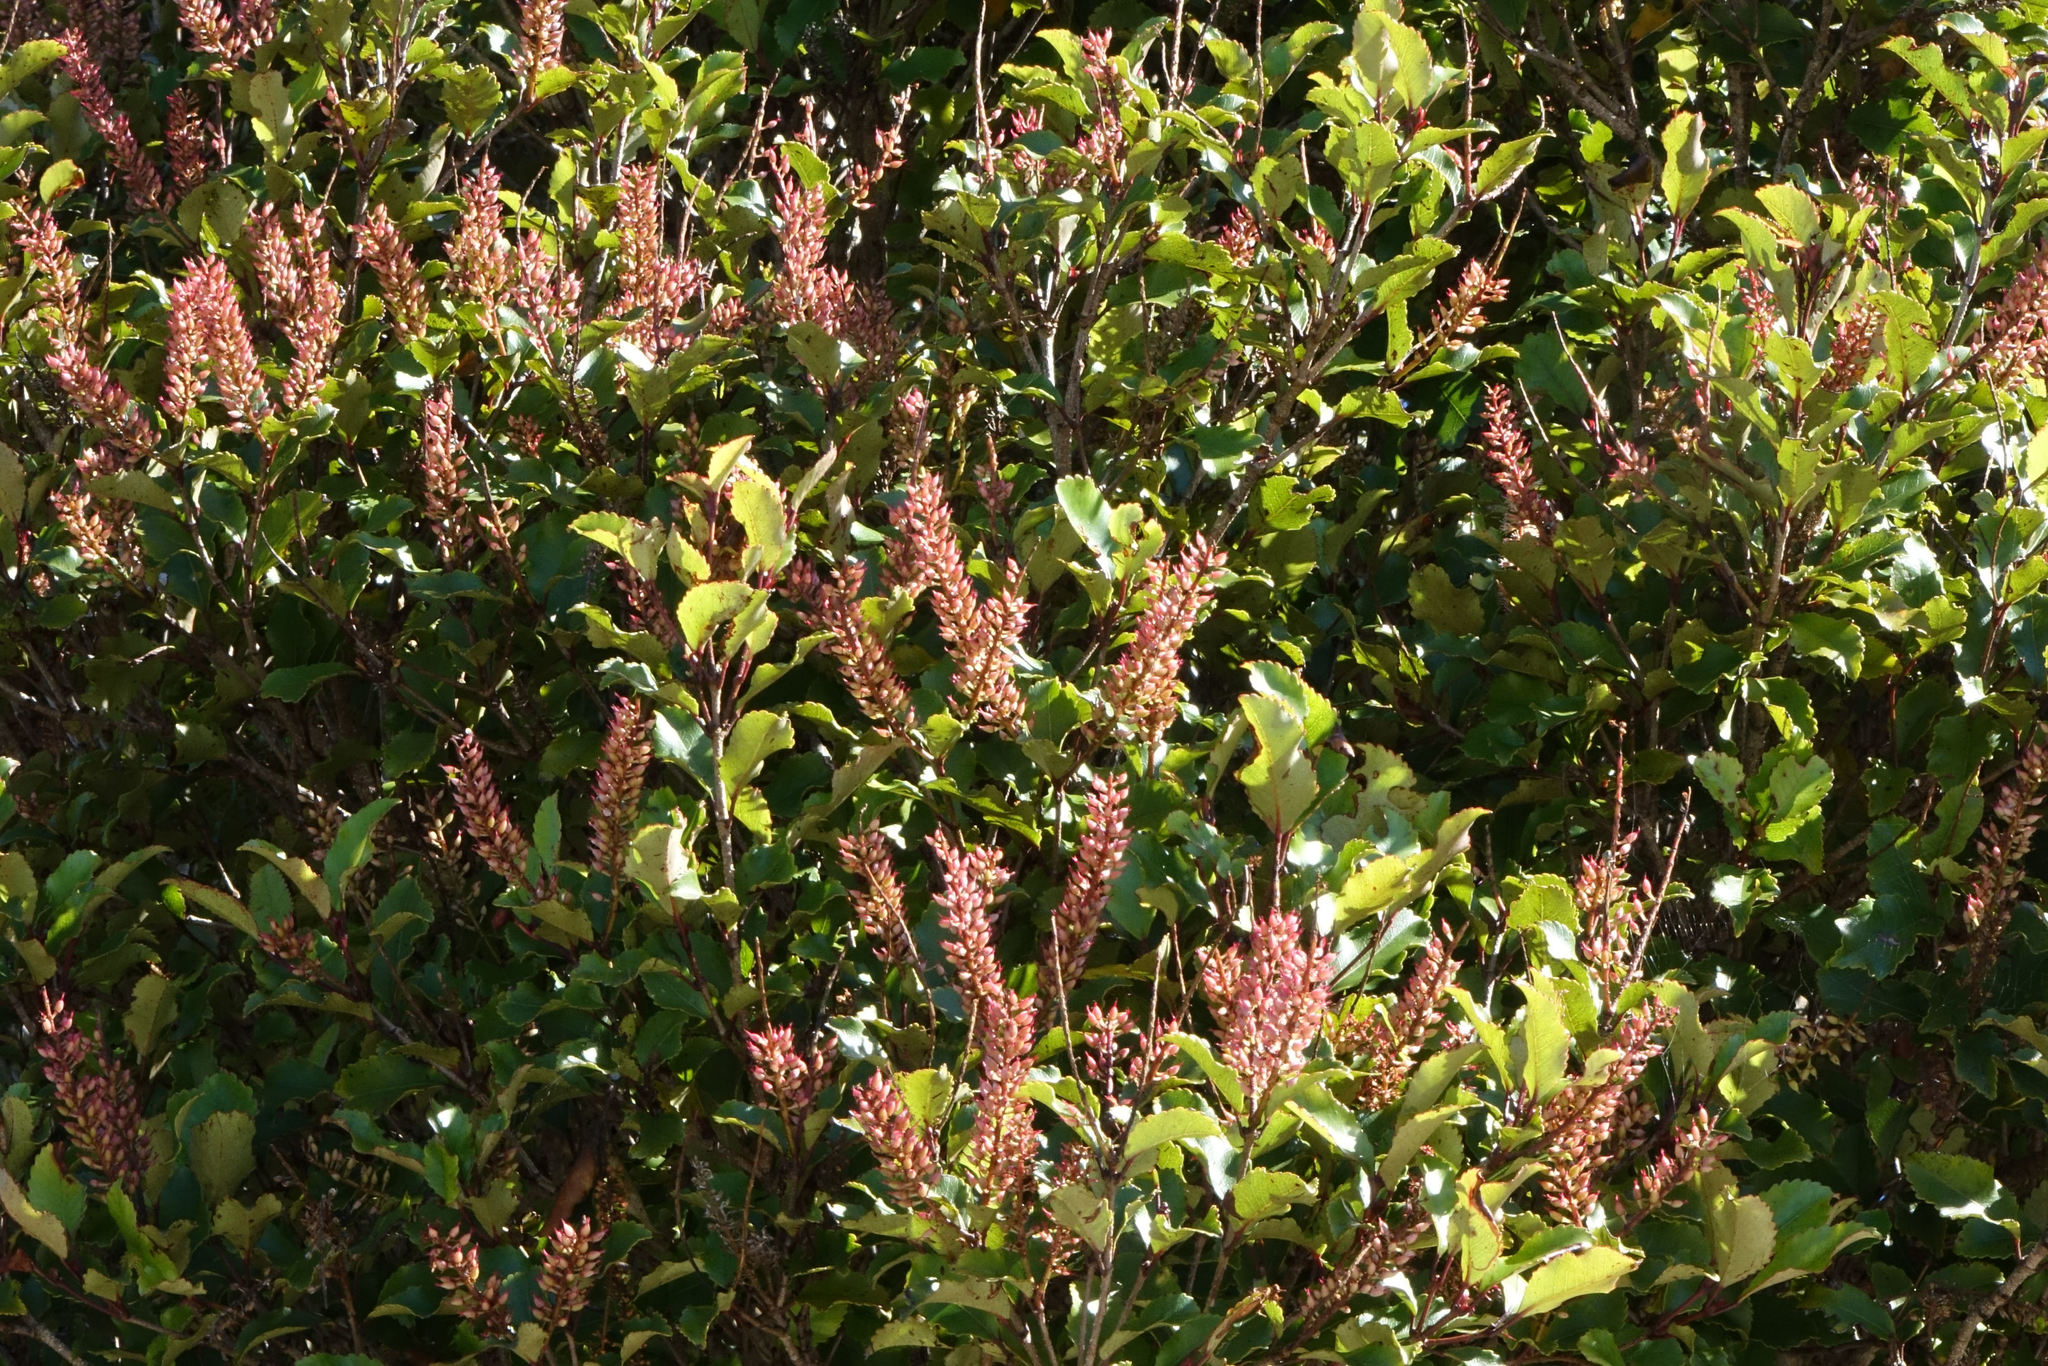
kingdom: Plantae
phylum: Tracheophyta
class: Magnoliopsida
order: Oxalidales
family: Cunoniaceae
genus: Pterophylla
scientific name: Pterophylla racemosa
